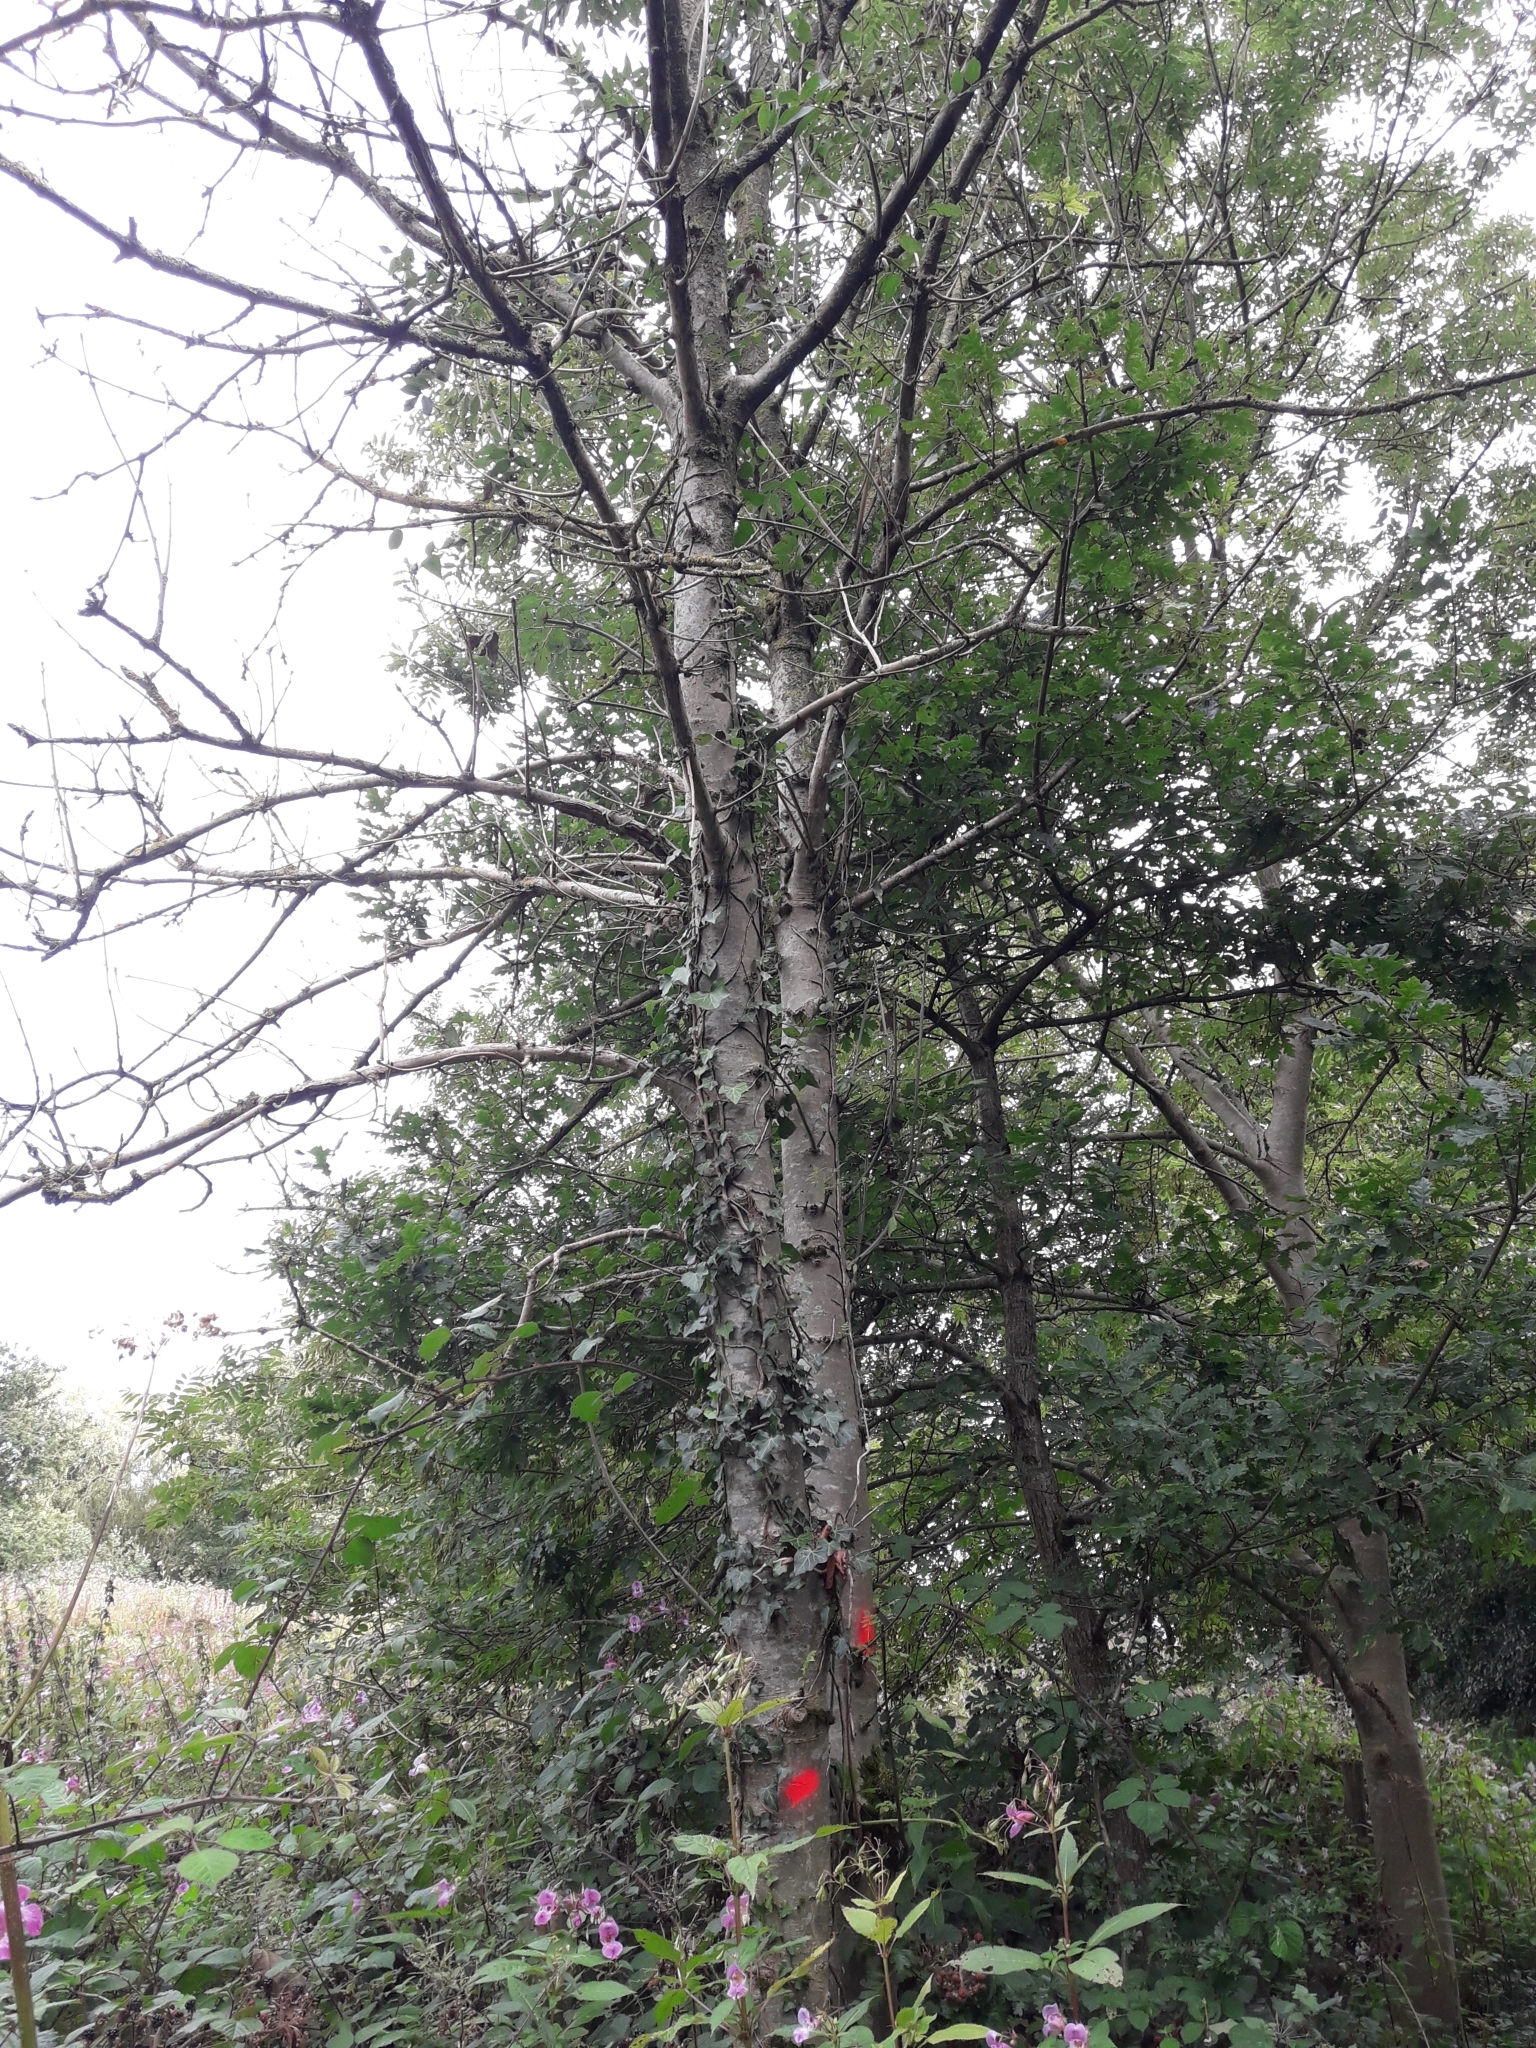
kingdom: Plantae
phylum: Tracheophyta
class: Magnoliopsida
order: Lamiales
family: Oleaceae
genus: Fraxinus
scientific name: Fraxinus excelsior
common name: European ash
